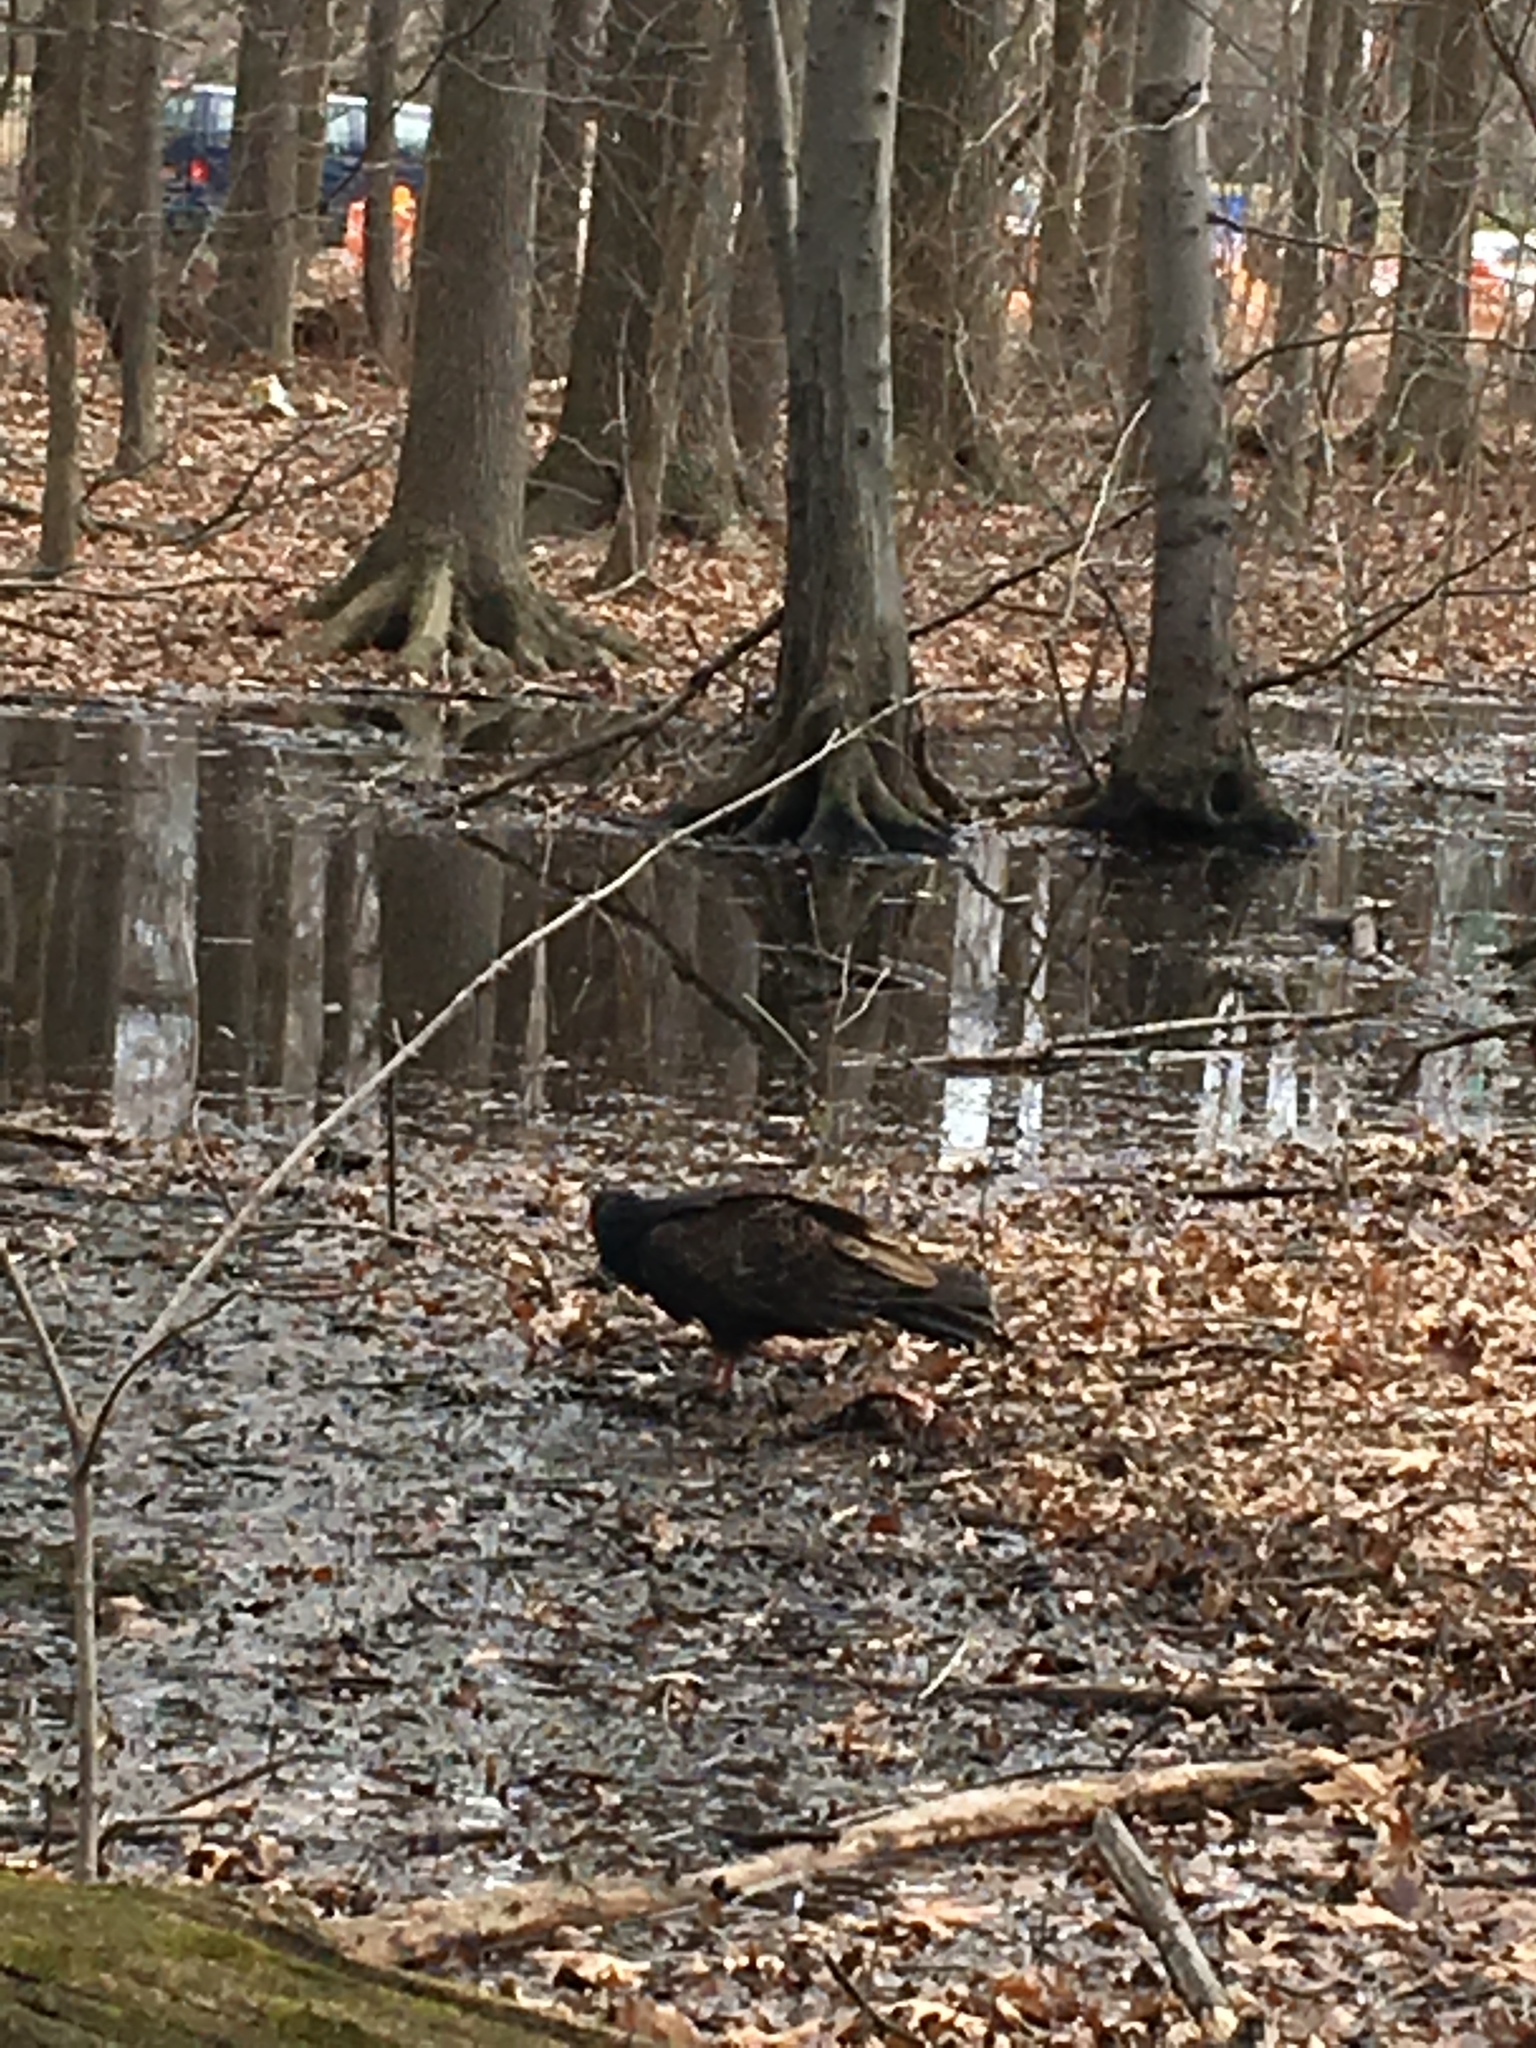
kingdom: Animalia
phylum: Chordata
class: Aves
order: Accipitriformes
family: Cathartidae
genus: Cathartes
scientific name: Cathartes aura
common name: Turkey vulture
